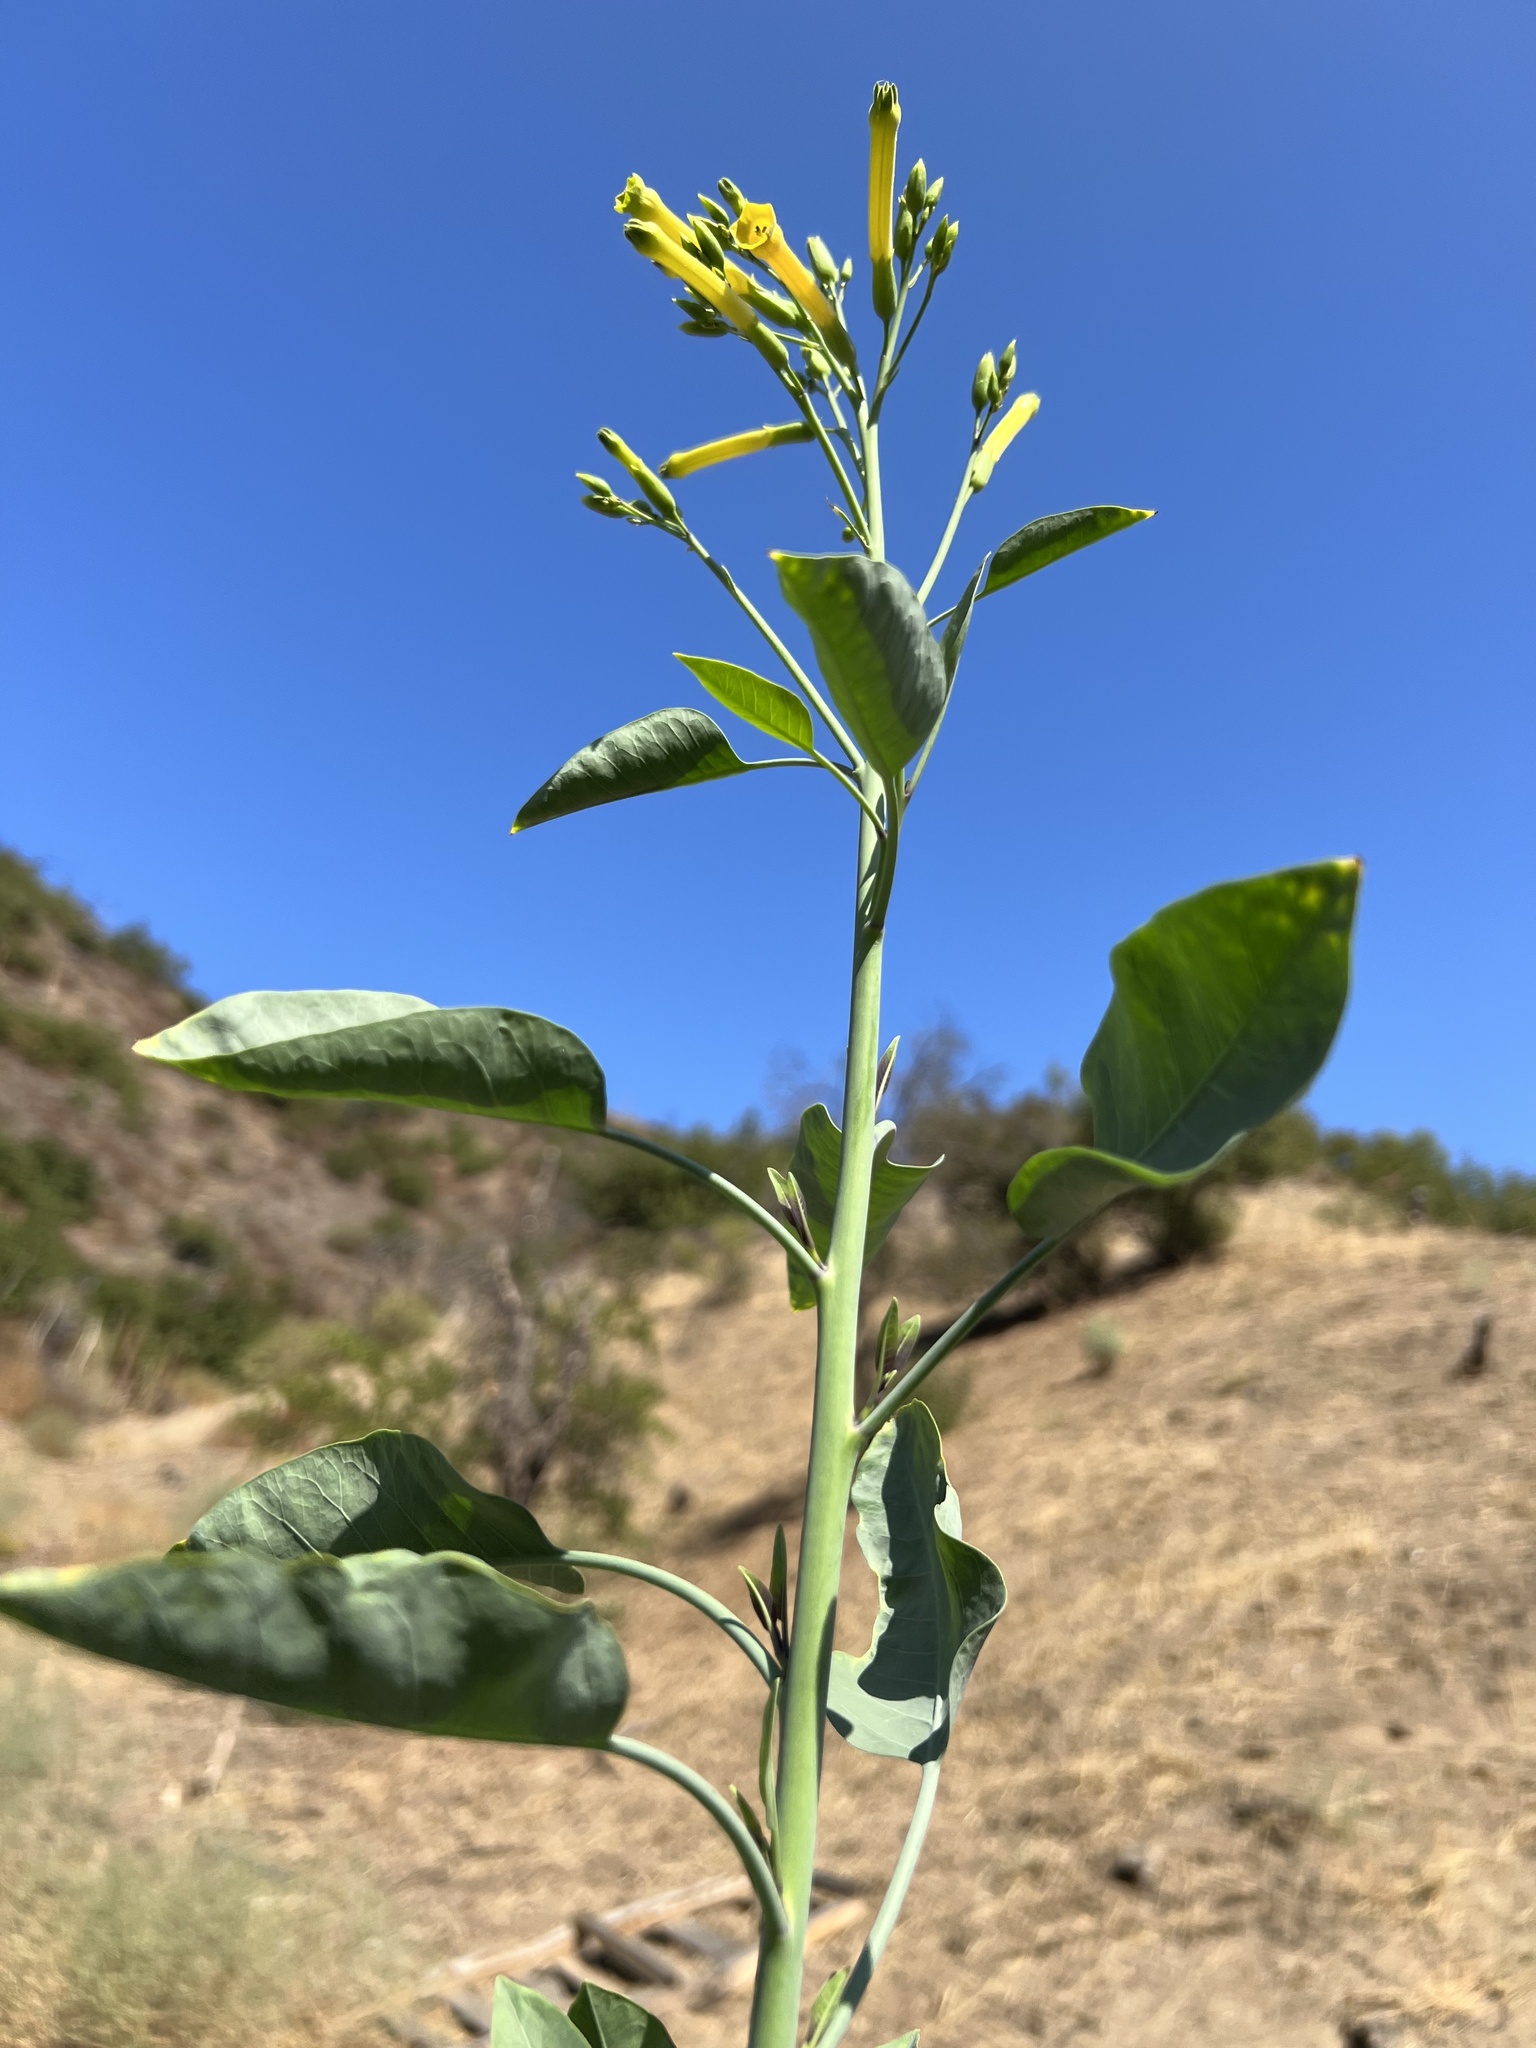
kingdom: Plantae
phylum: Tracheophyta
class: Magnoliopsida
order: Solanales
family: Solanaceae
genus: Nicotiana
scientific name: Nicotiana glauca
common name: Tree tobacco
